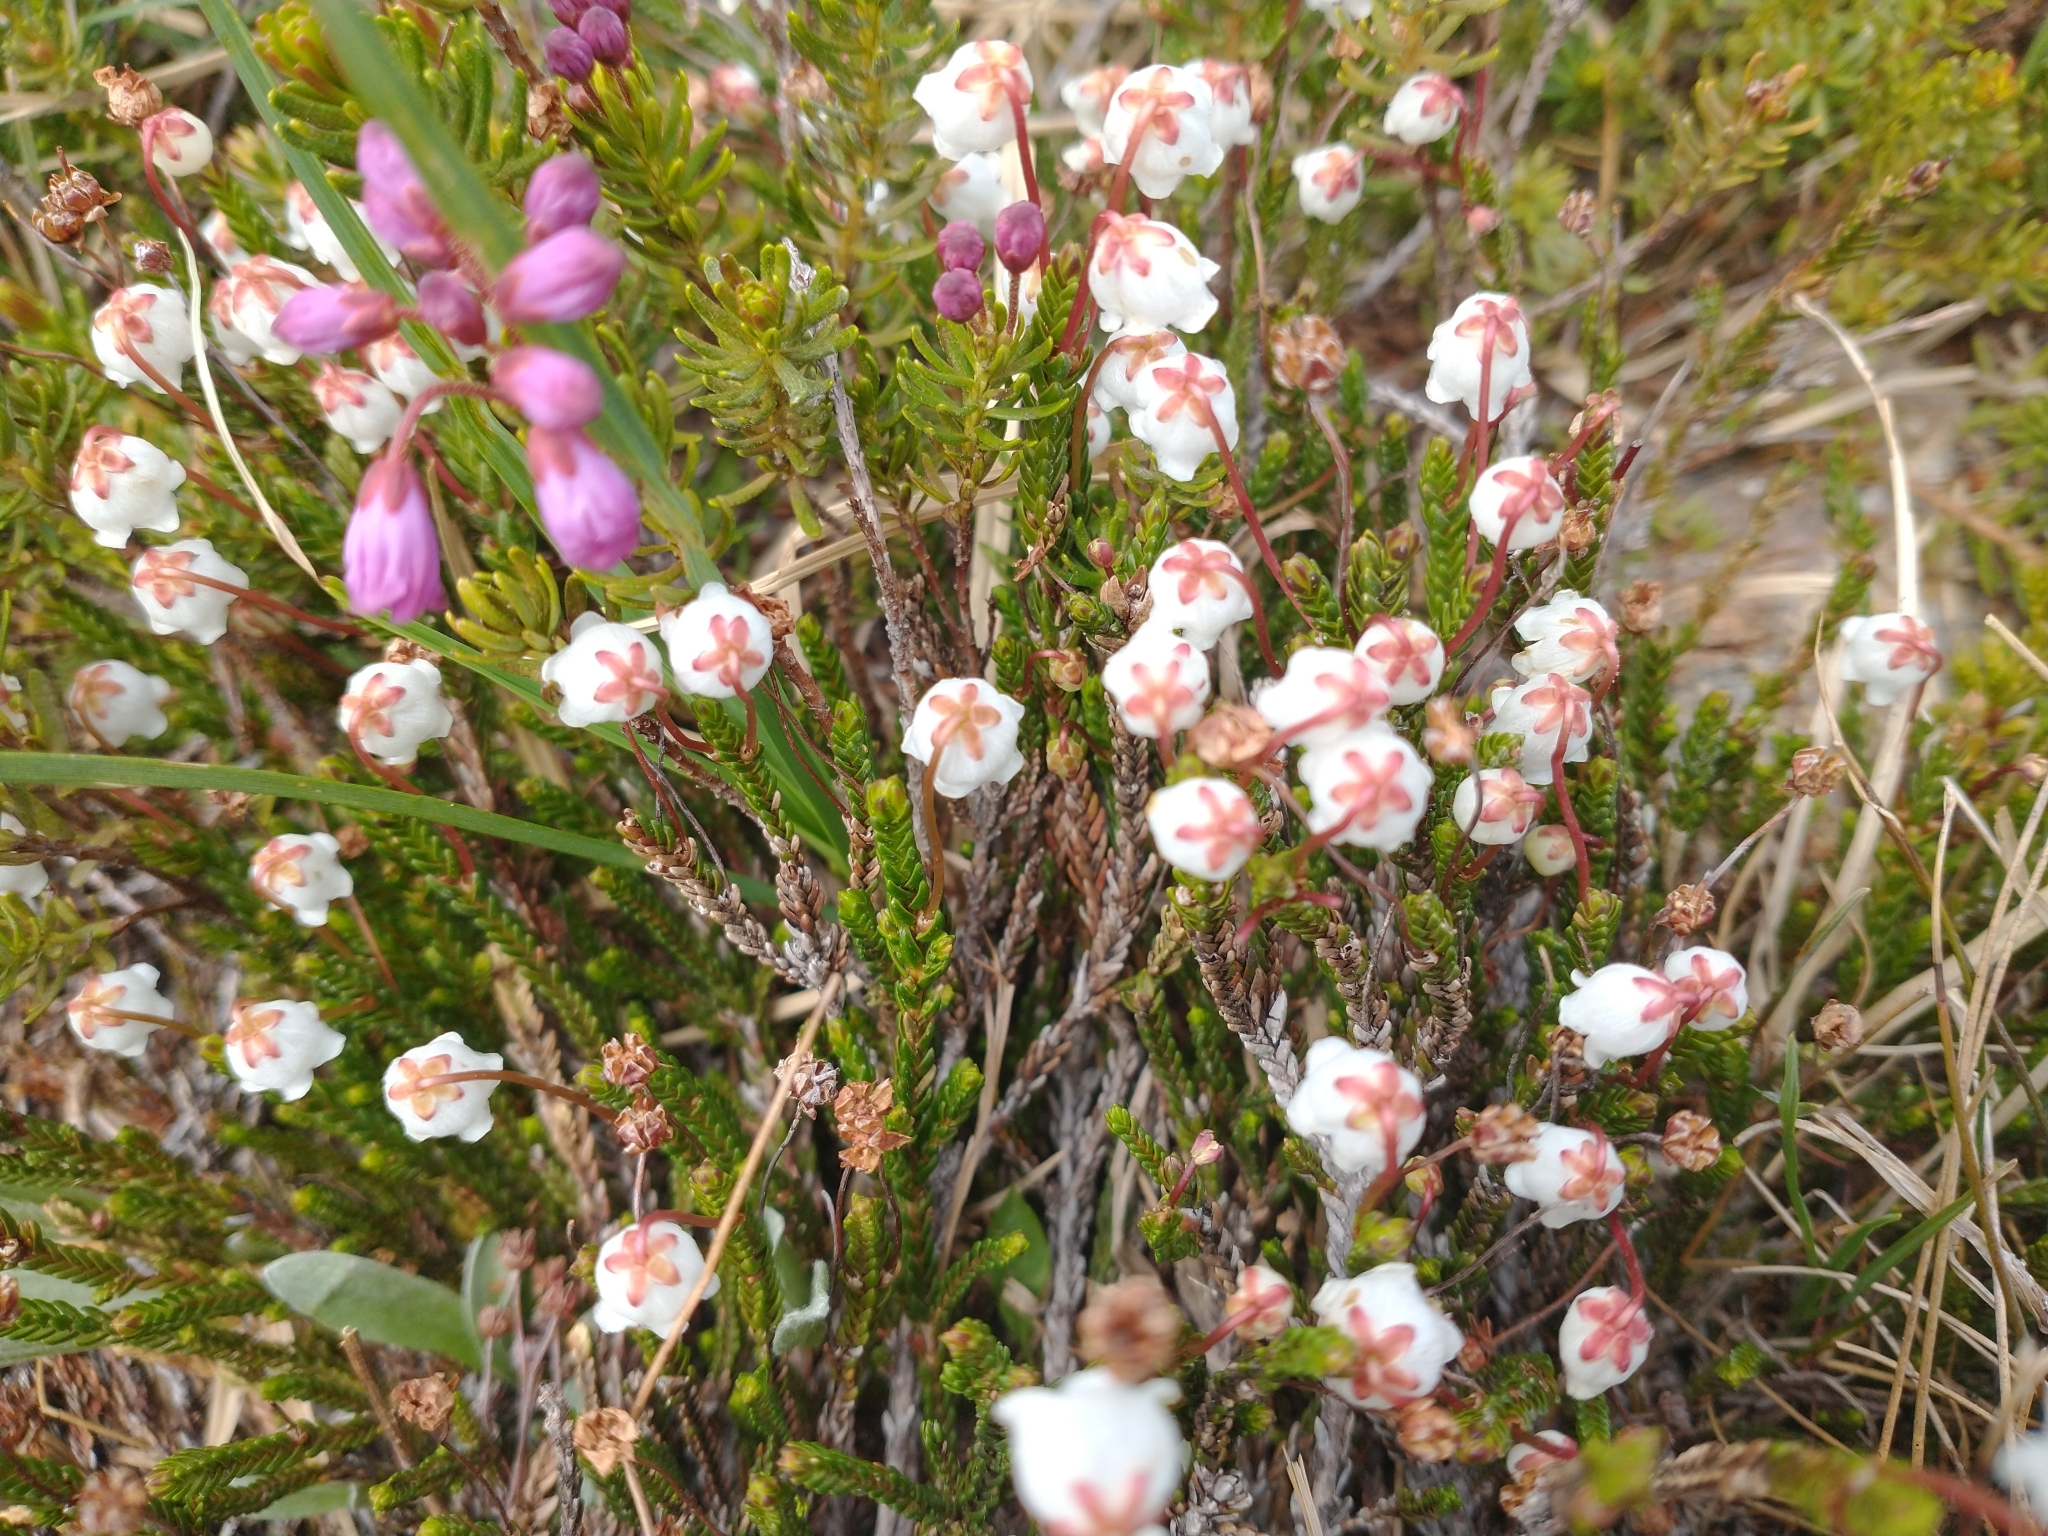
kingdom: Plantae
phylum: Tracheophyta
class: Magnoliopsida
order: Ericales
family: Ericaceae
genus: Cassiope
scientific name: Cassiope mertensiana
